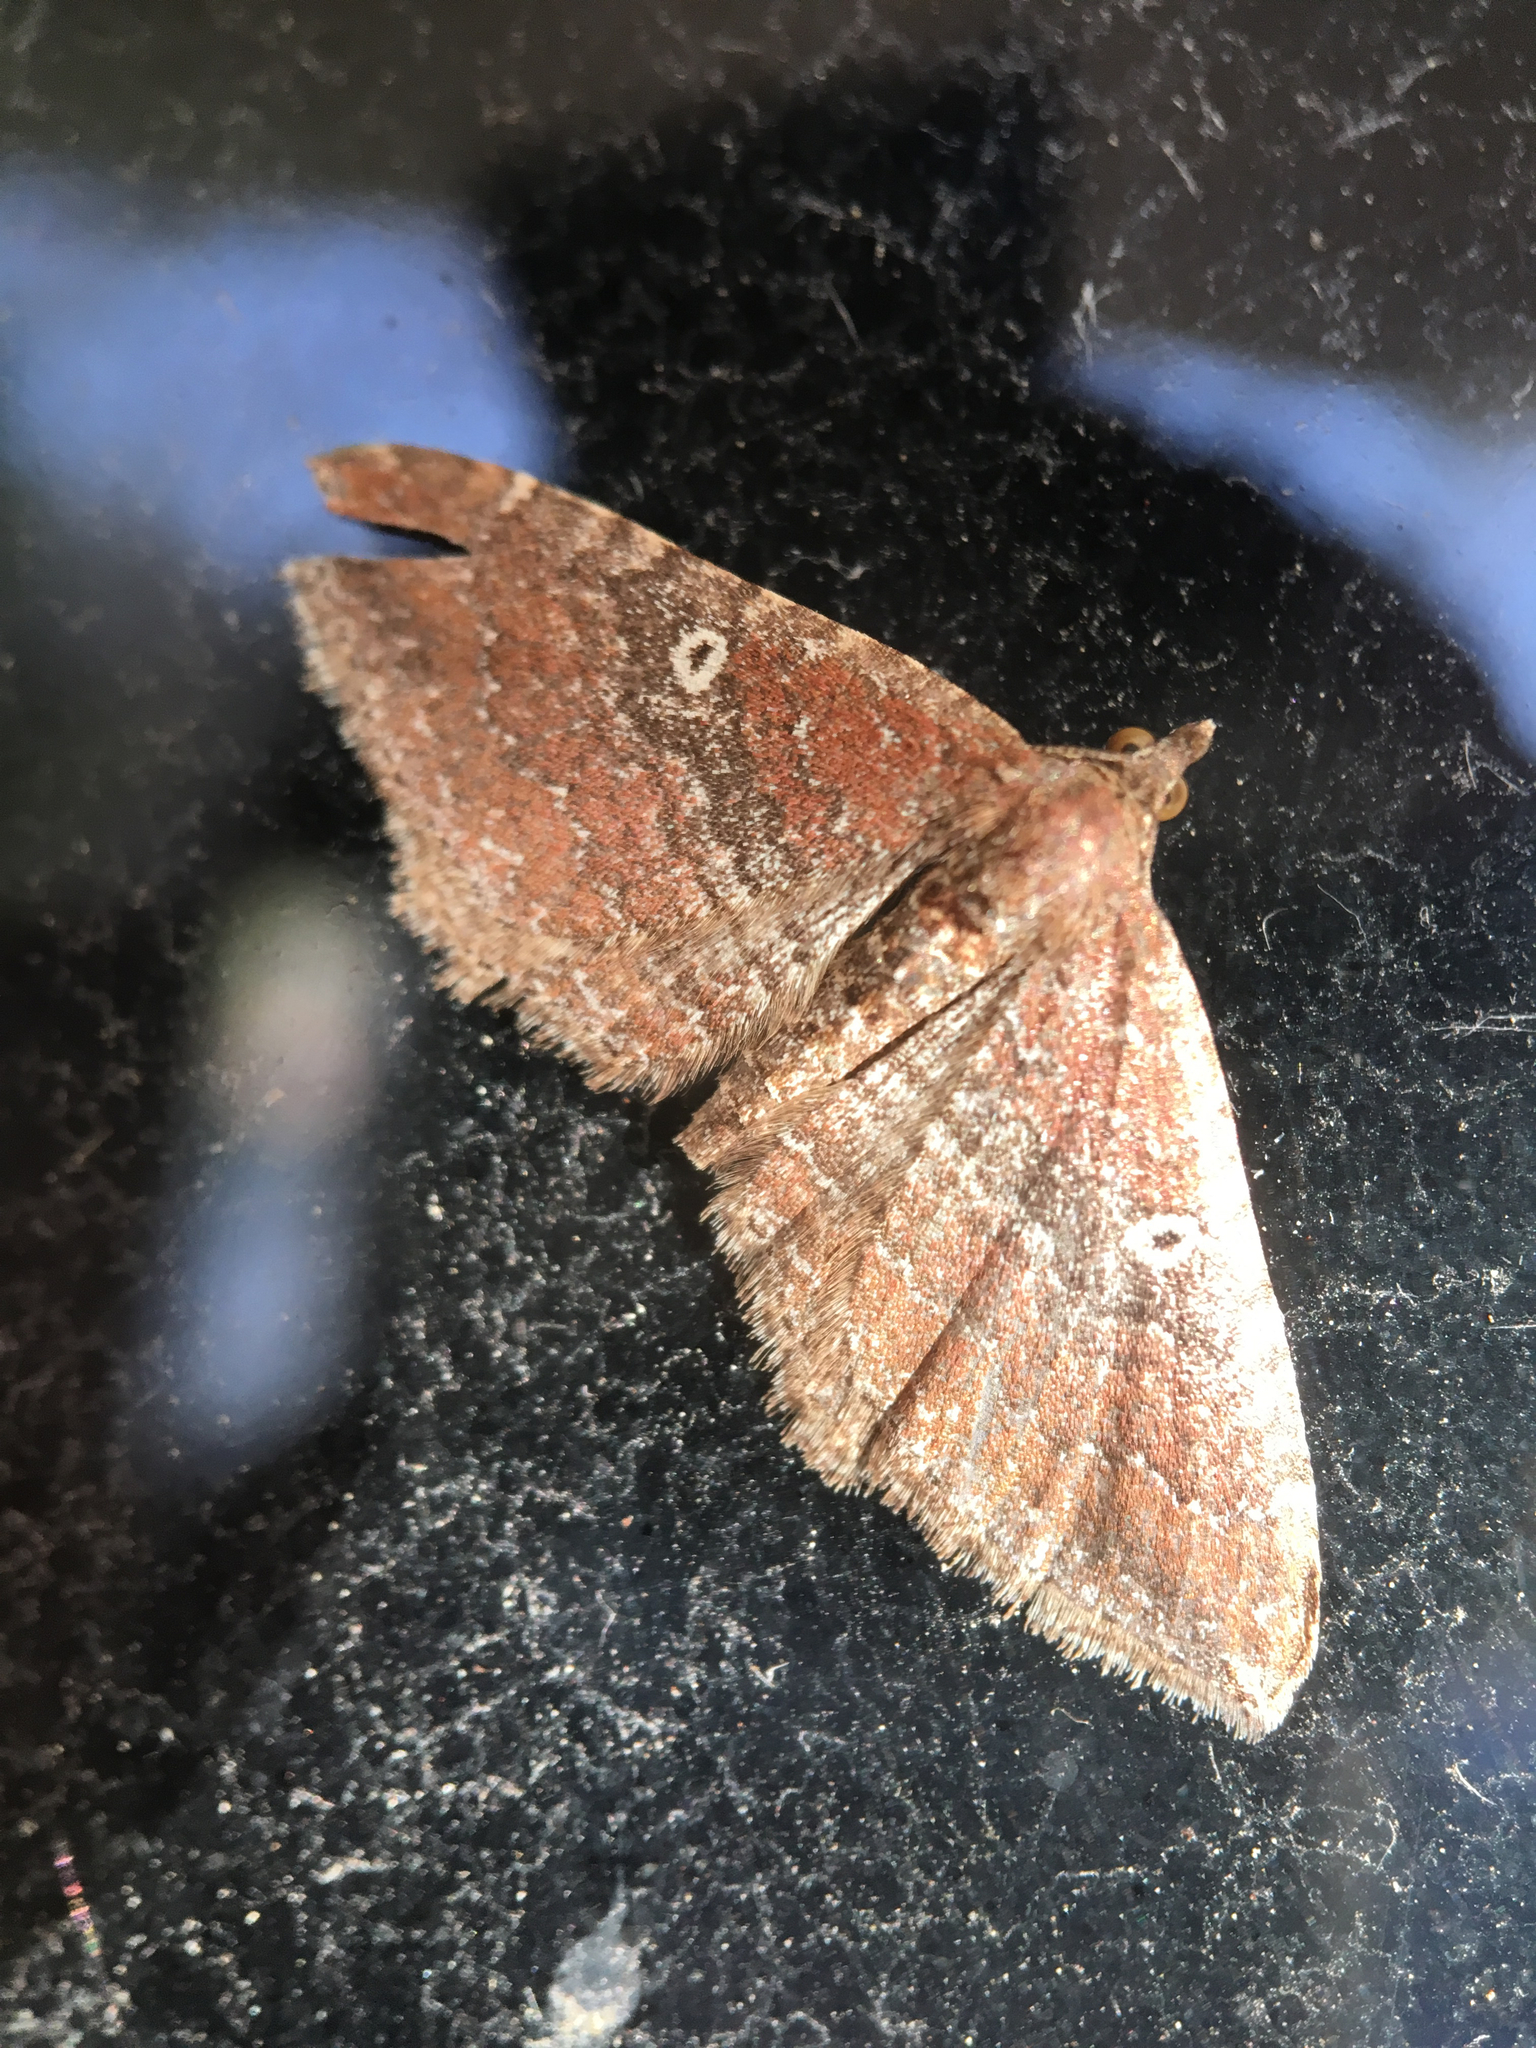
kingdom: Animalia
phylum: Arthropoda
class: Insecta
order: Lepidoptera
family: Geometridae
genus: Orthonama
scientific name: Orthonama obstipata
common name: The gem
